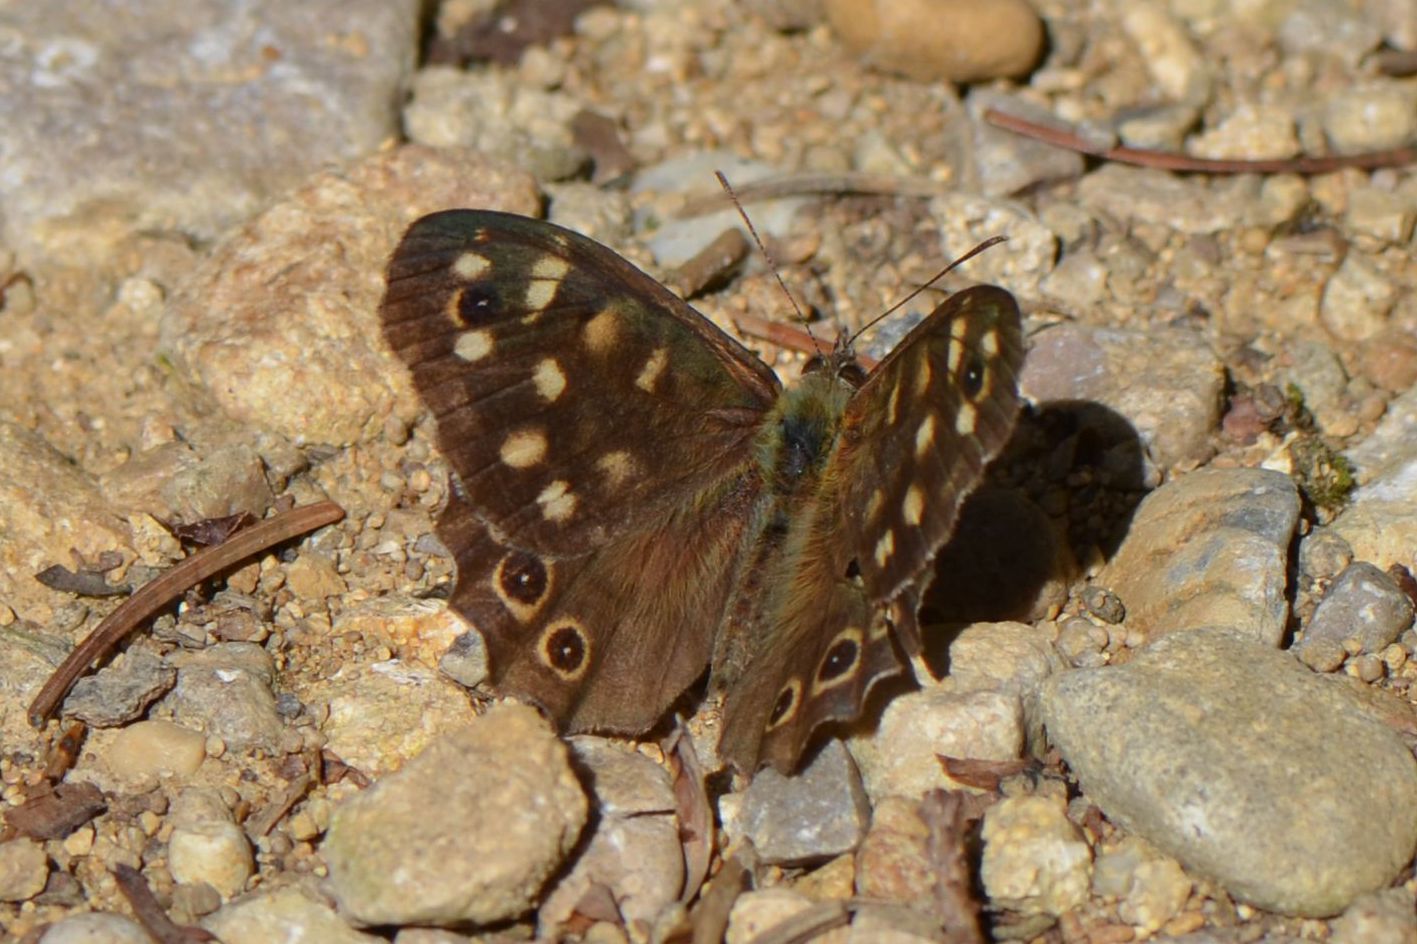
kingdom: Animalia
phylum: Arthropoda
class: Insecta
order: Lepidoptera
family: Nymphalidae
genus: Pararge
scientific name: Pararge aegeria
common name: Speckled wood
